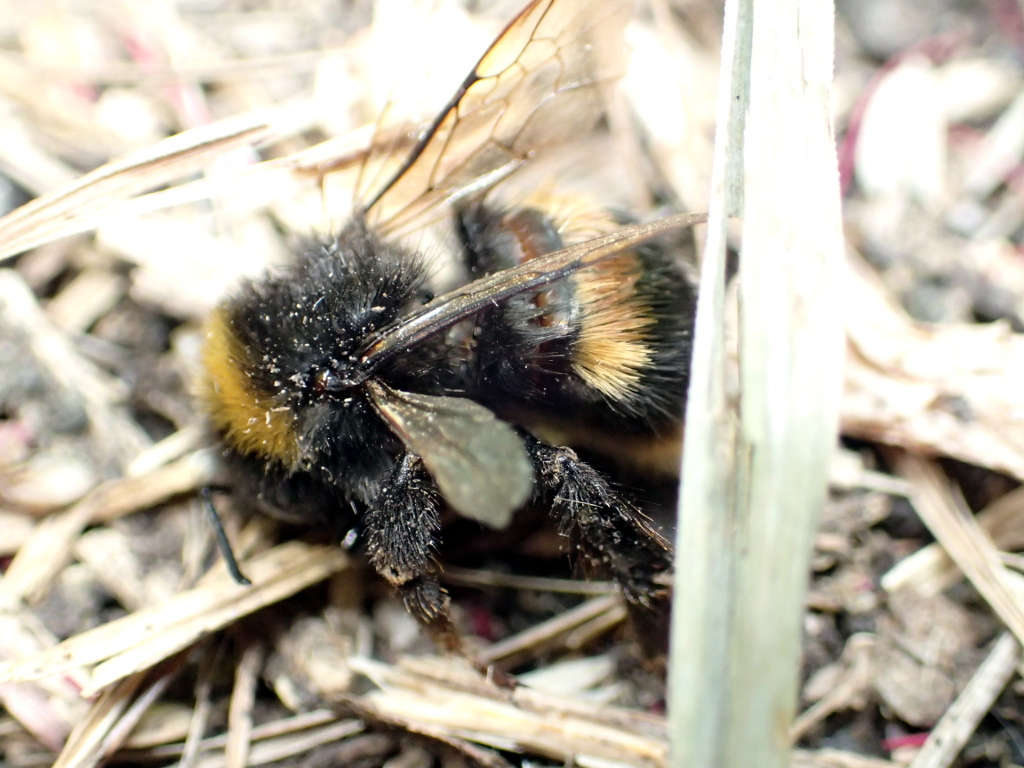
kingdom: Animalia
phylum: Arthropoda
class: Insecta
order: Hymenoptera
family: Apidae
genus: Bombus
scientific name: Bombus terrestris
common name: Buff-tailed bumblebee
